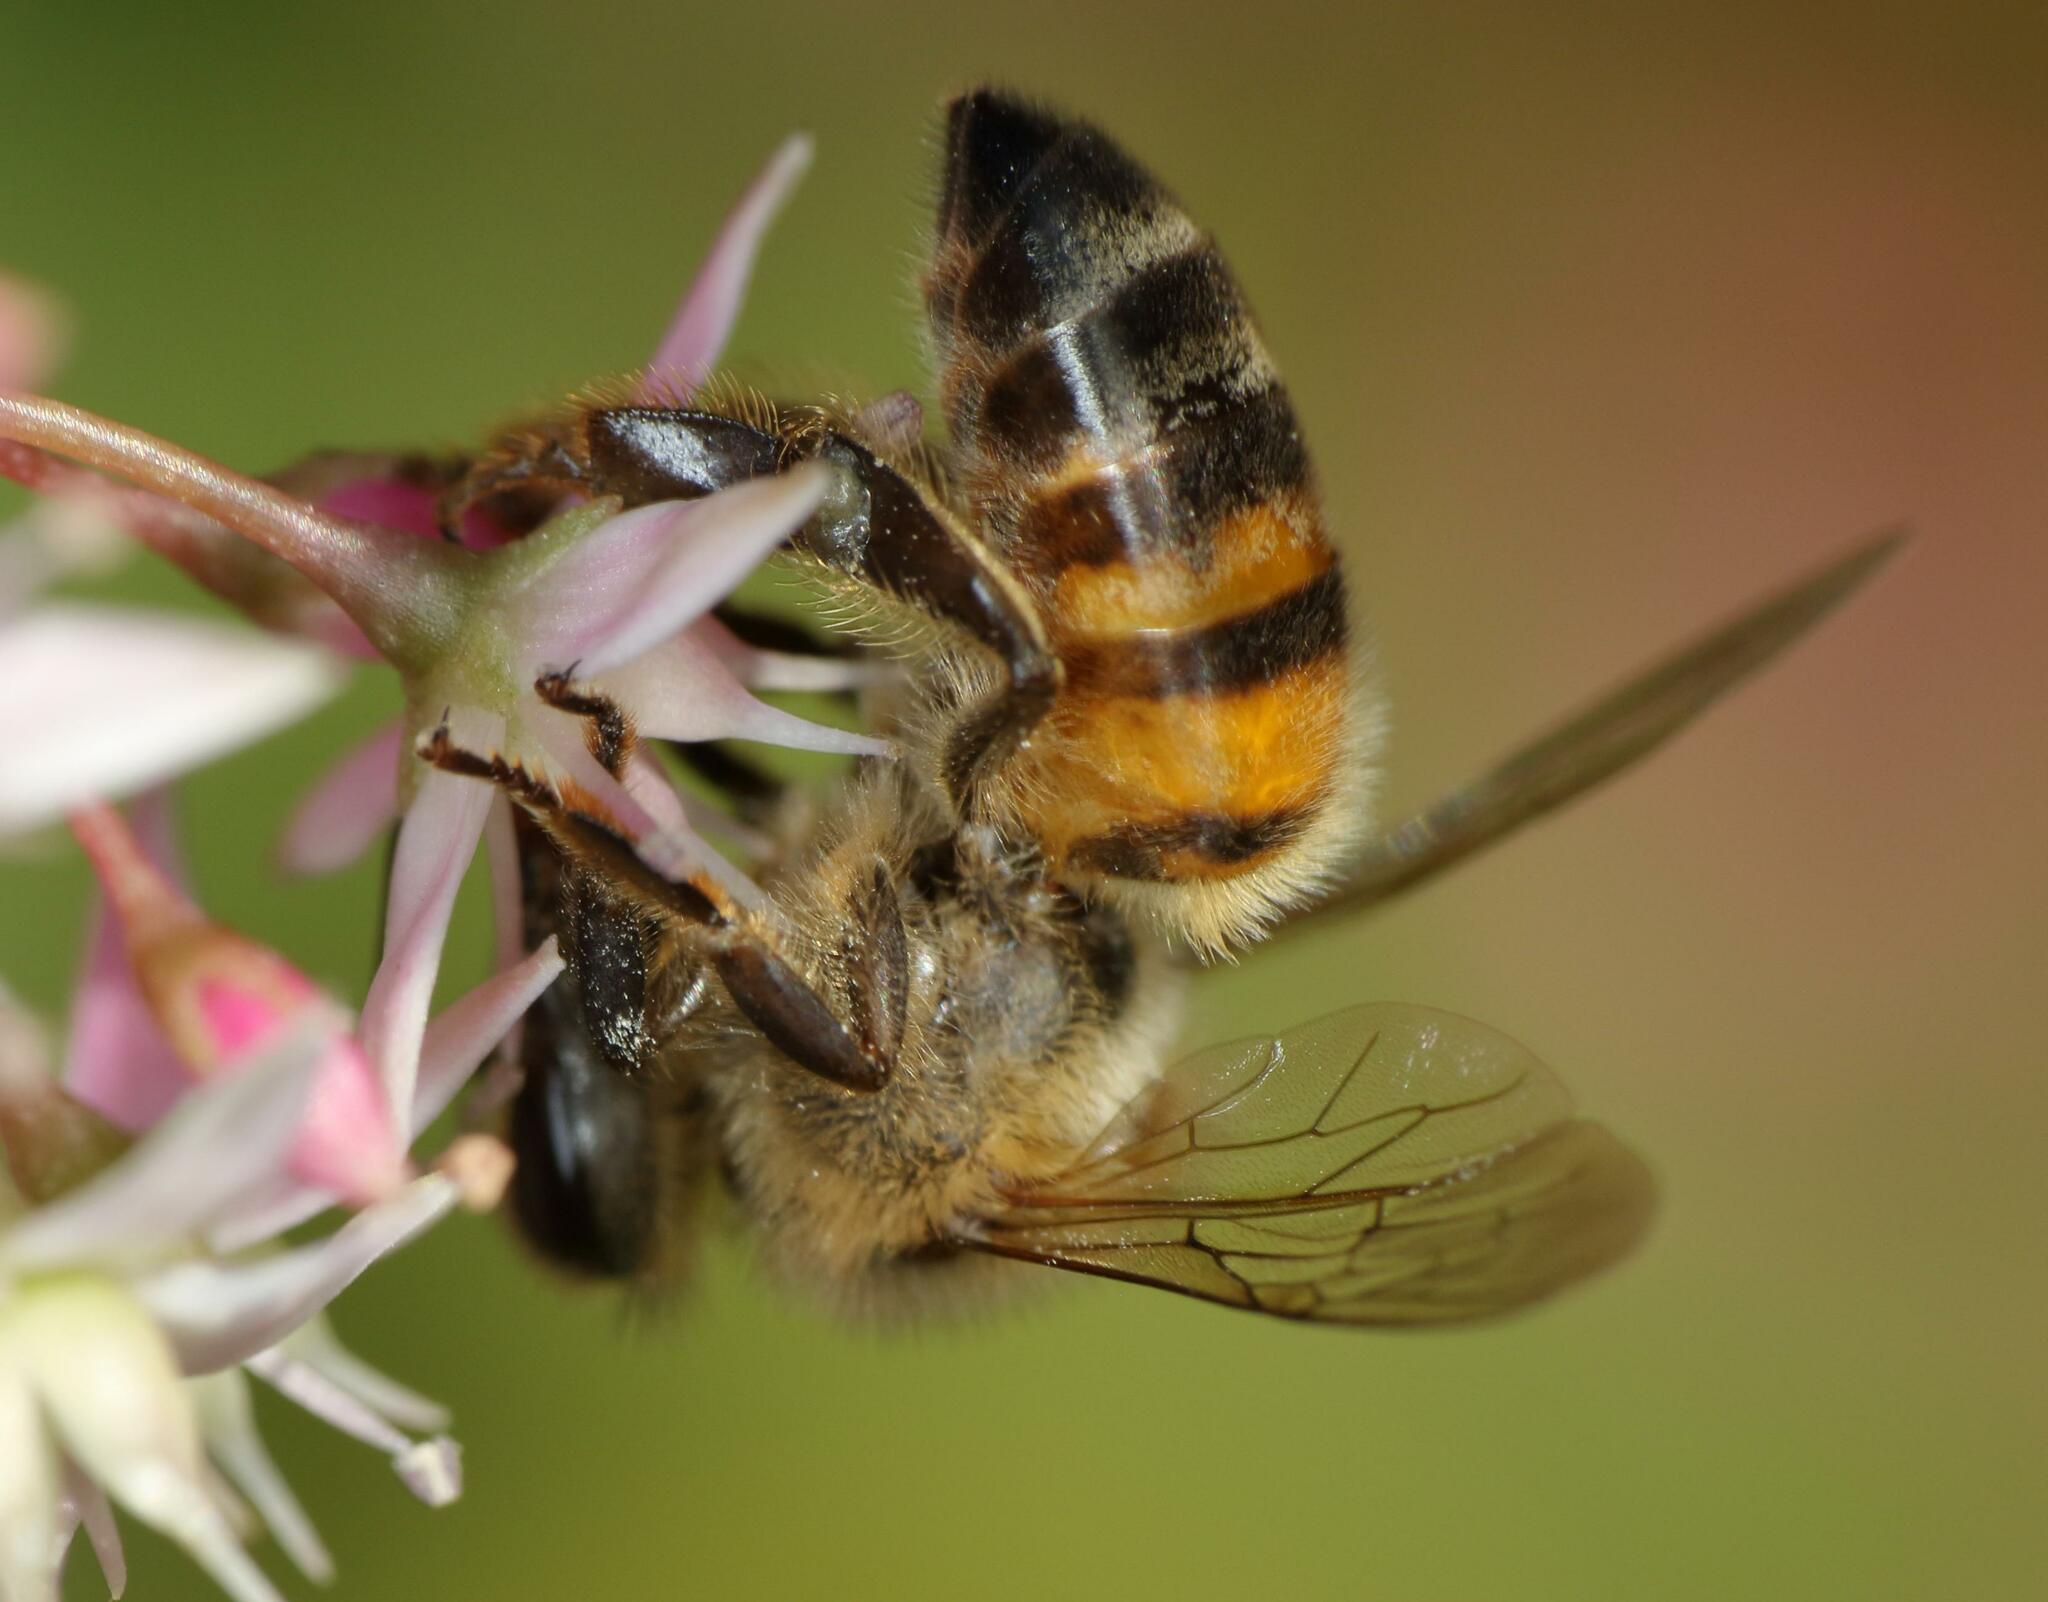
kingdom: Animalia
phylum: Arthropoda
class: Insecta
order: Hymenoptera
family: Apidae
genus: Apis
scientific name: Apis mellifera
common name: Honey bee
